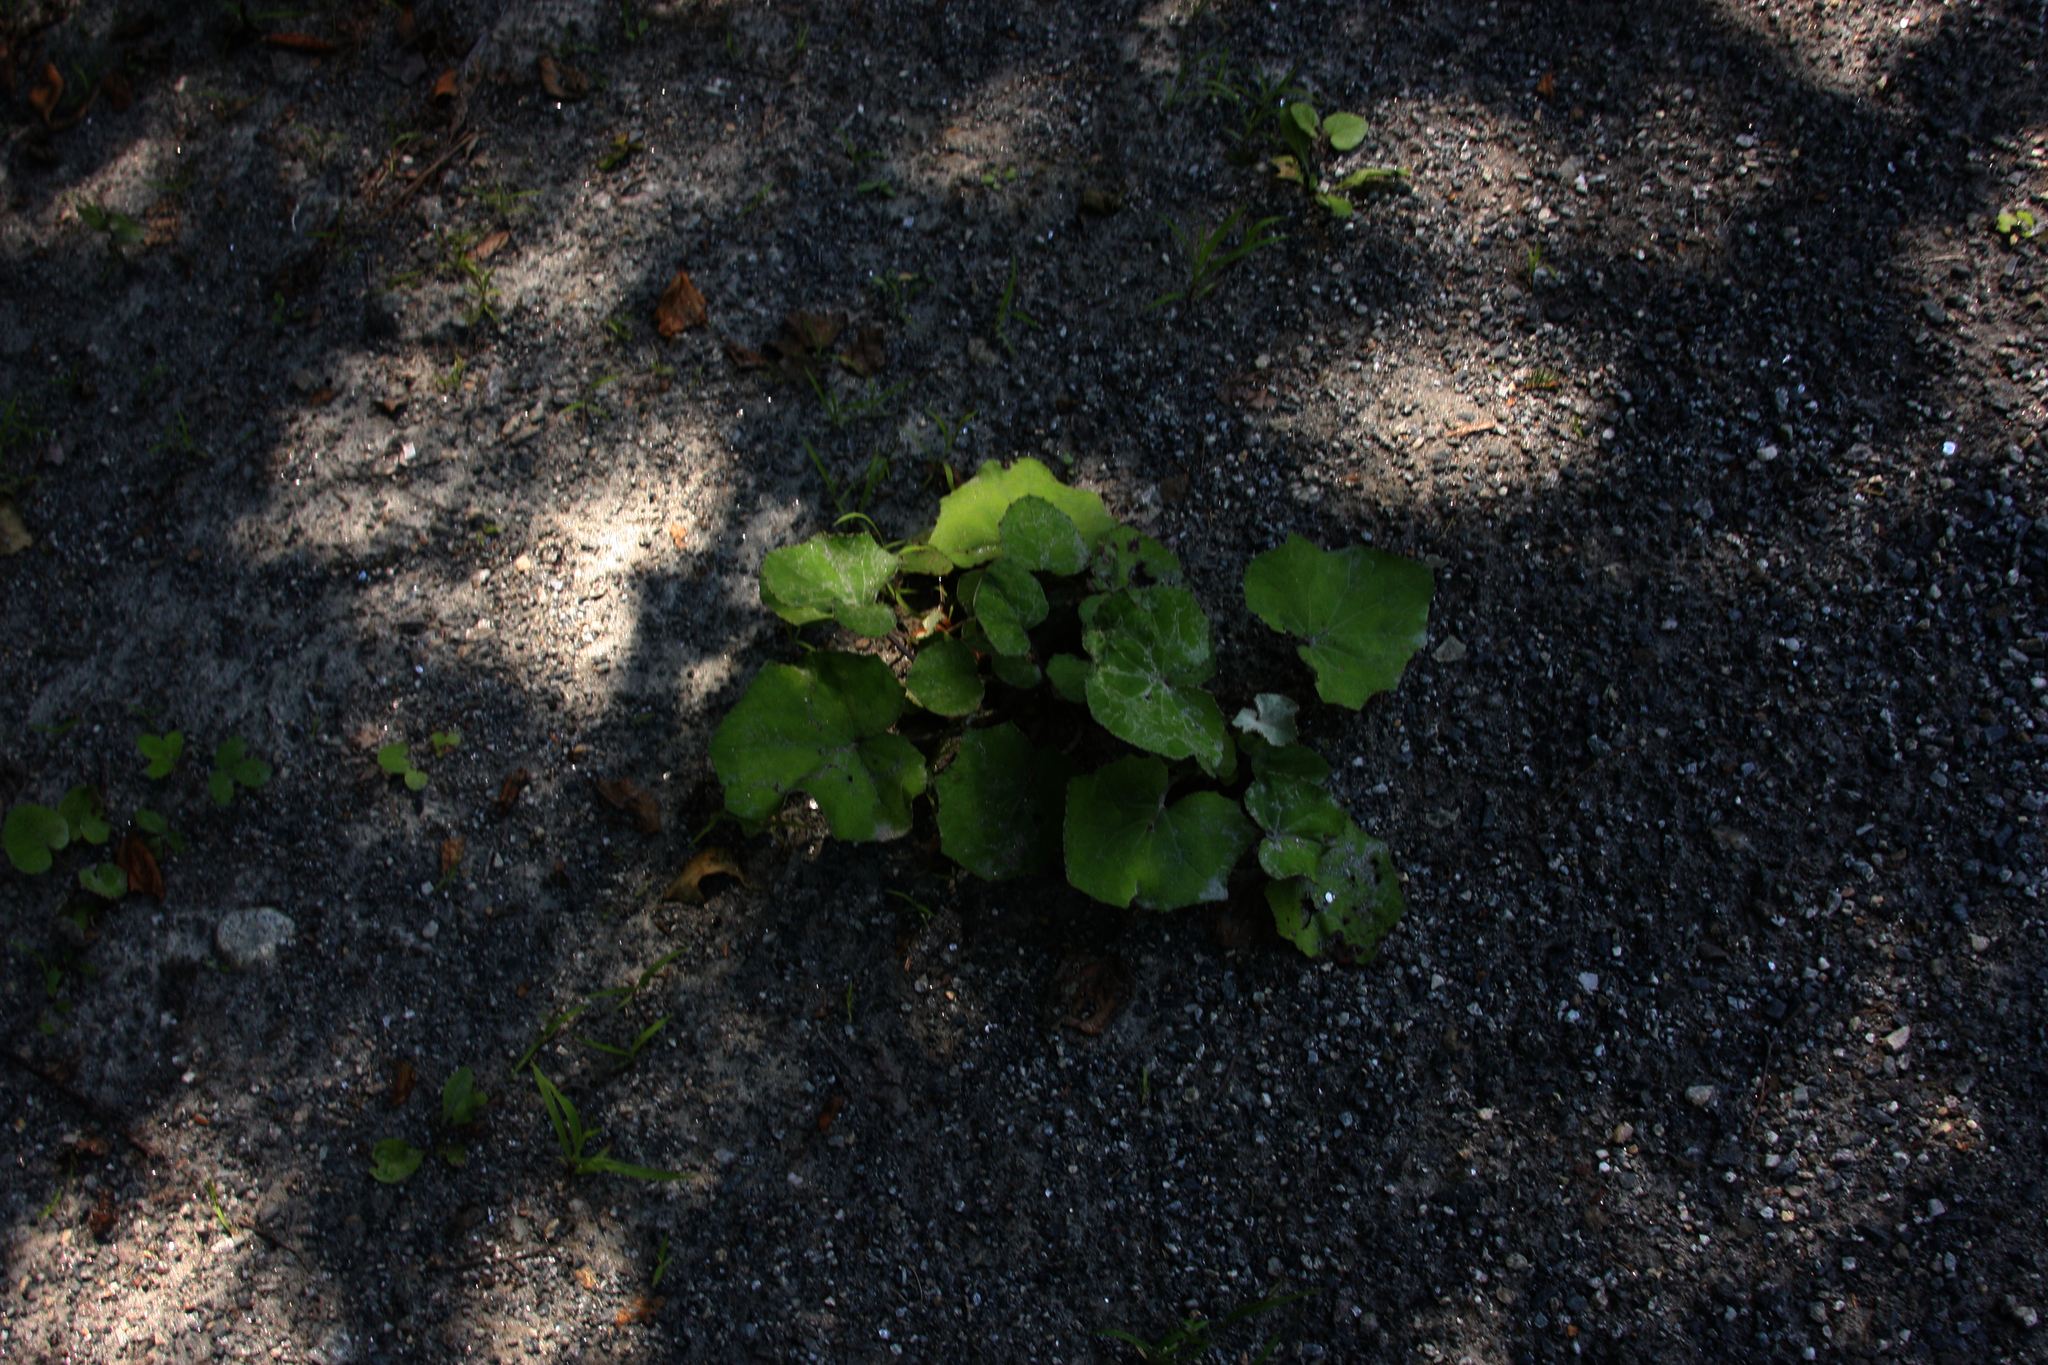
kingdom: Plantae
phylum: Tracheophyta
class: Magnoliopsida
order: Asterales
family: Asteraceae
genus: Tussilago
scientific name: Tussilago farfara
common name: Coltsfoot
